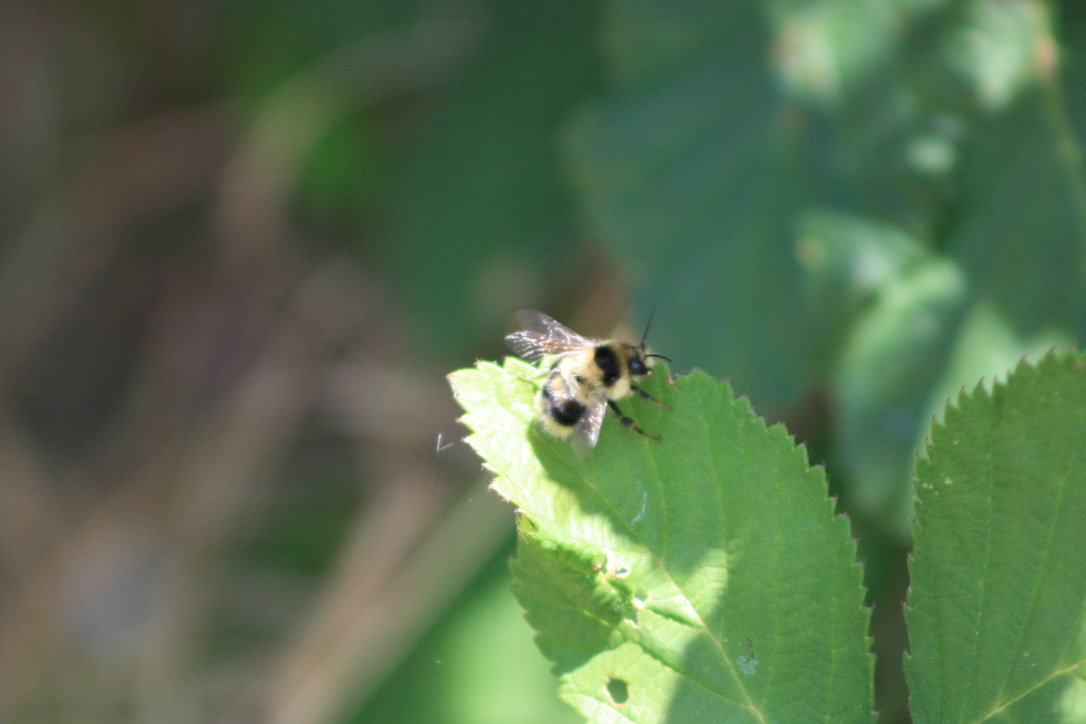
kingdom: Animalia
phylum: Arthropoda
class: Insecta
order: Hymenoptera
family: Apidae
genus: Bombus
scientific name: Bombus melanopygus
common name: Black tail bumble bee
